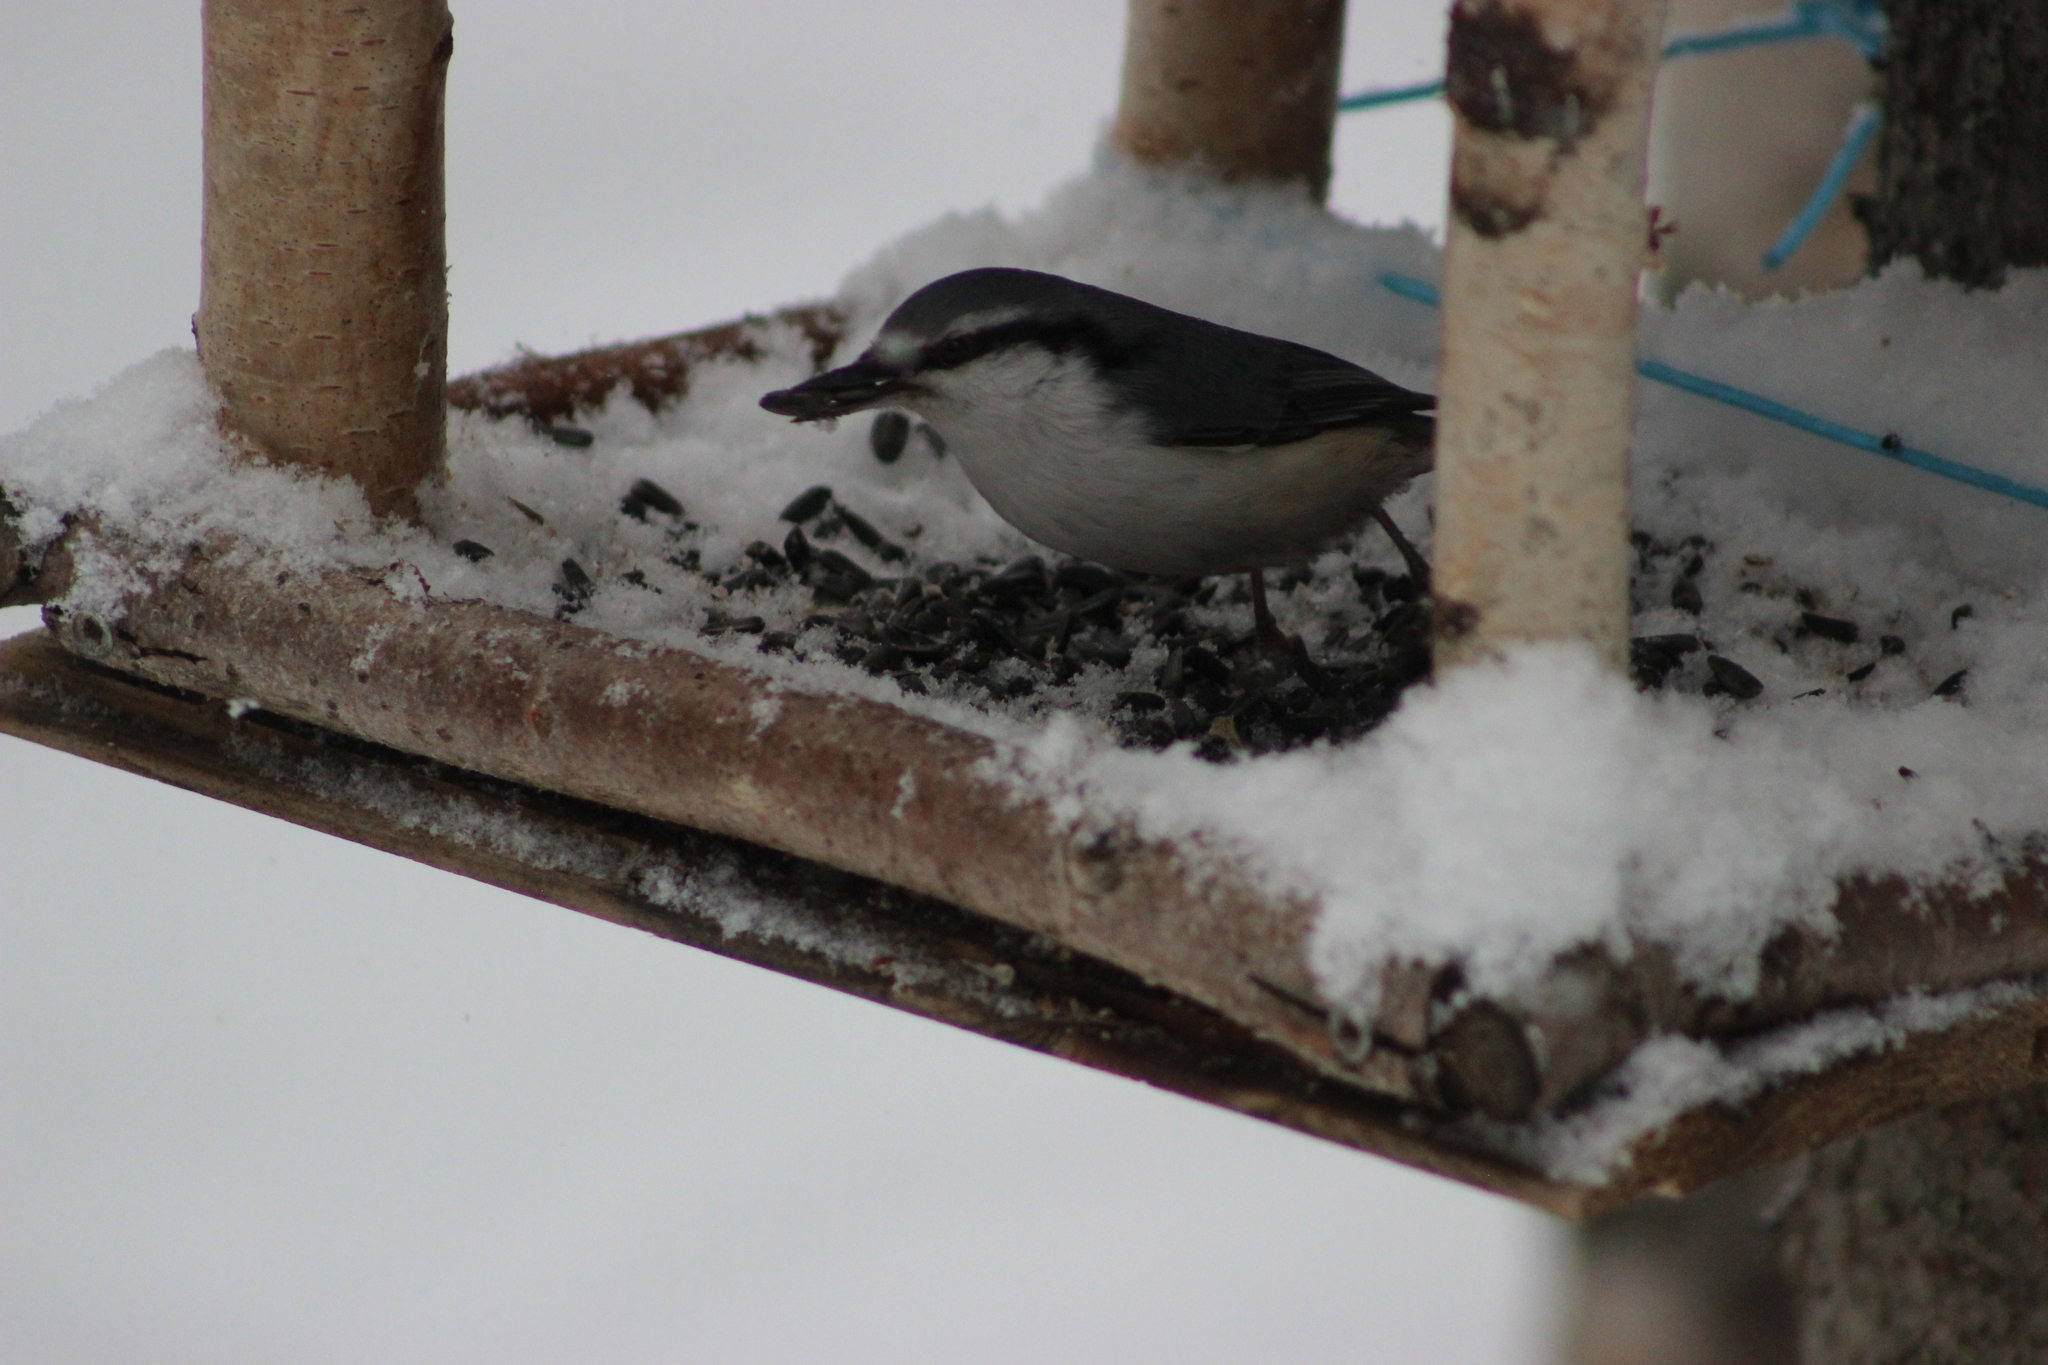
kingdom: Animalia
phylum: Chordata
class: Aves
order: Passeriformes
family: Sittidae
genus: Sitta
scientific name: Sitta europaea
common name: Eurasian nuthatch
